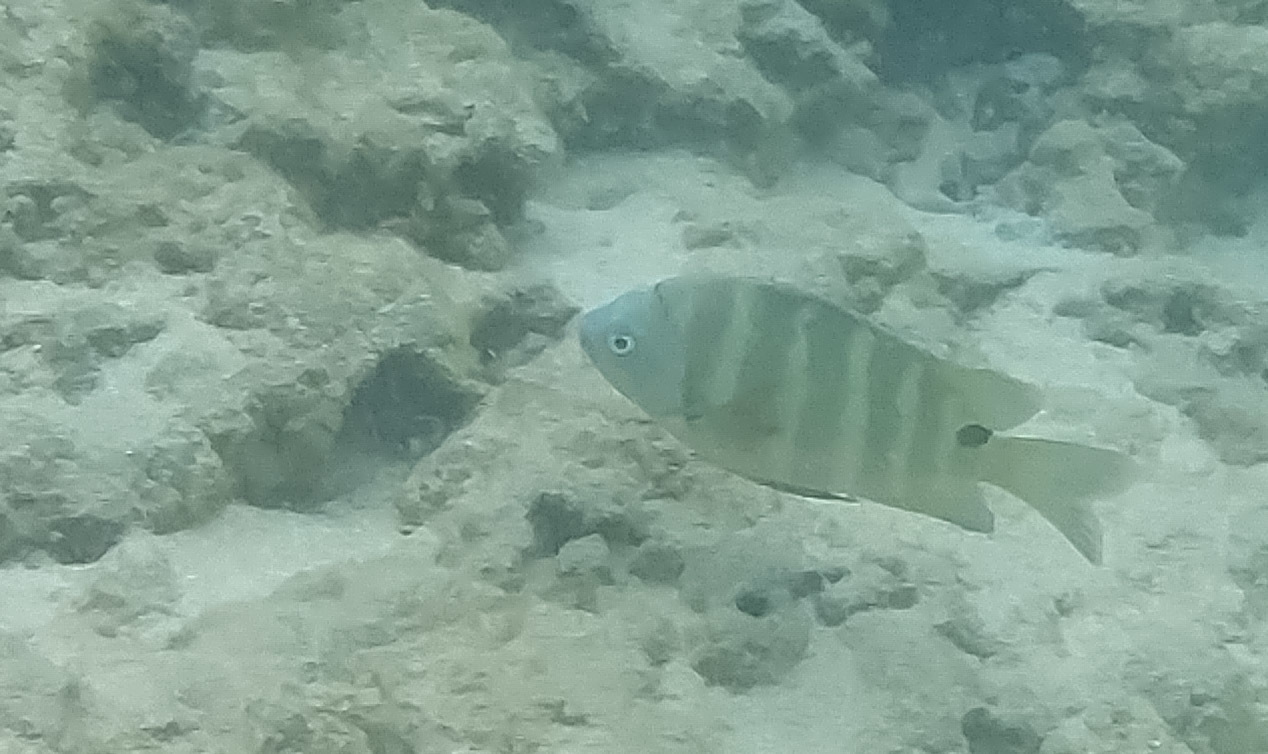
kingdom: Animalia
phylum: Chordata
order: Perciformes
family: Pomacentridae
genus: Abudefduf
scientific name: Abudefduf sordidus
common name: Blackspot sergeant
